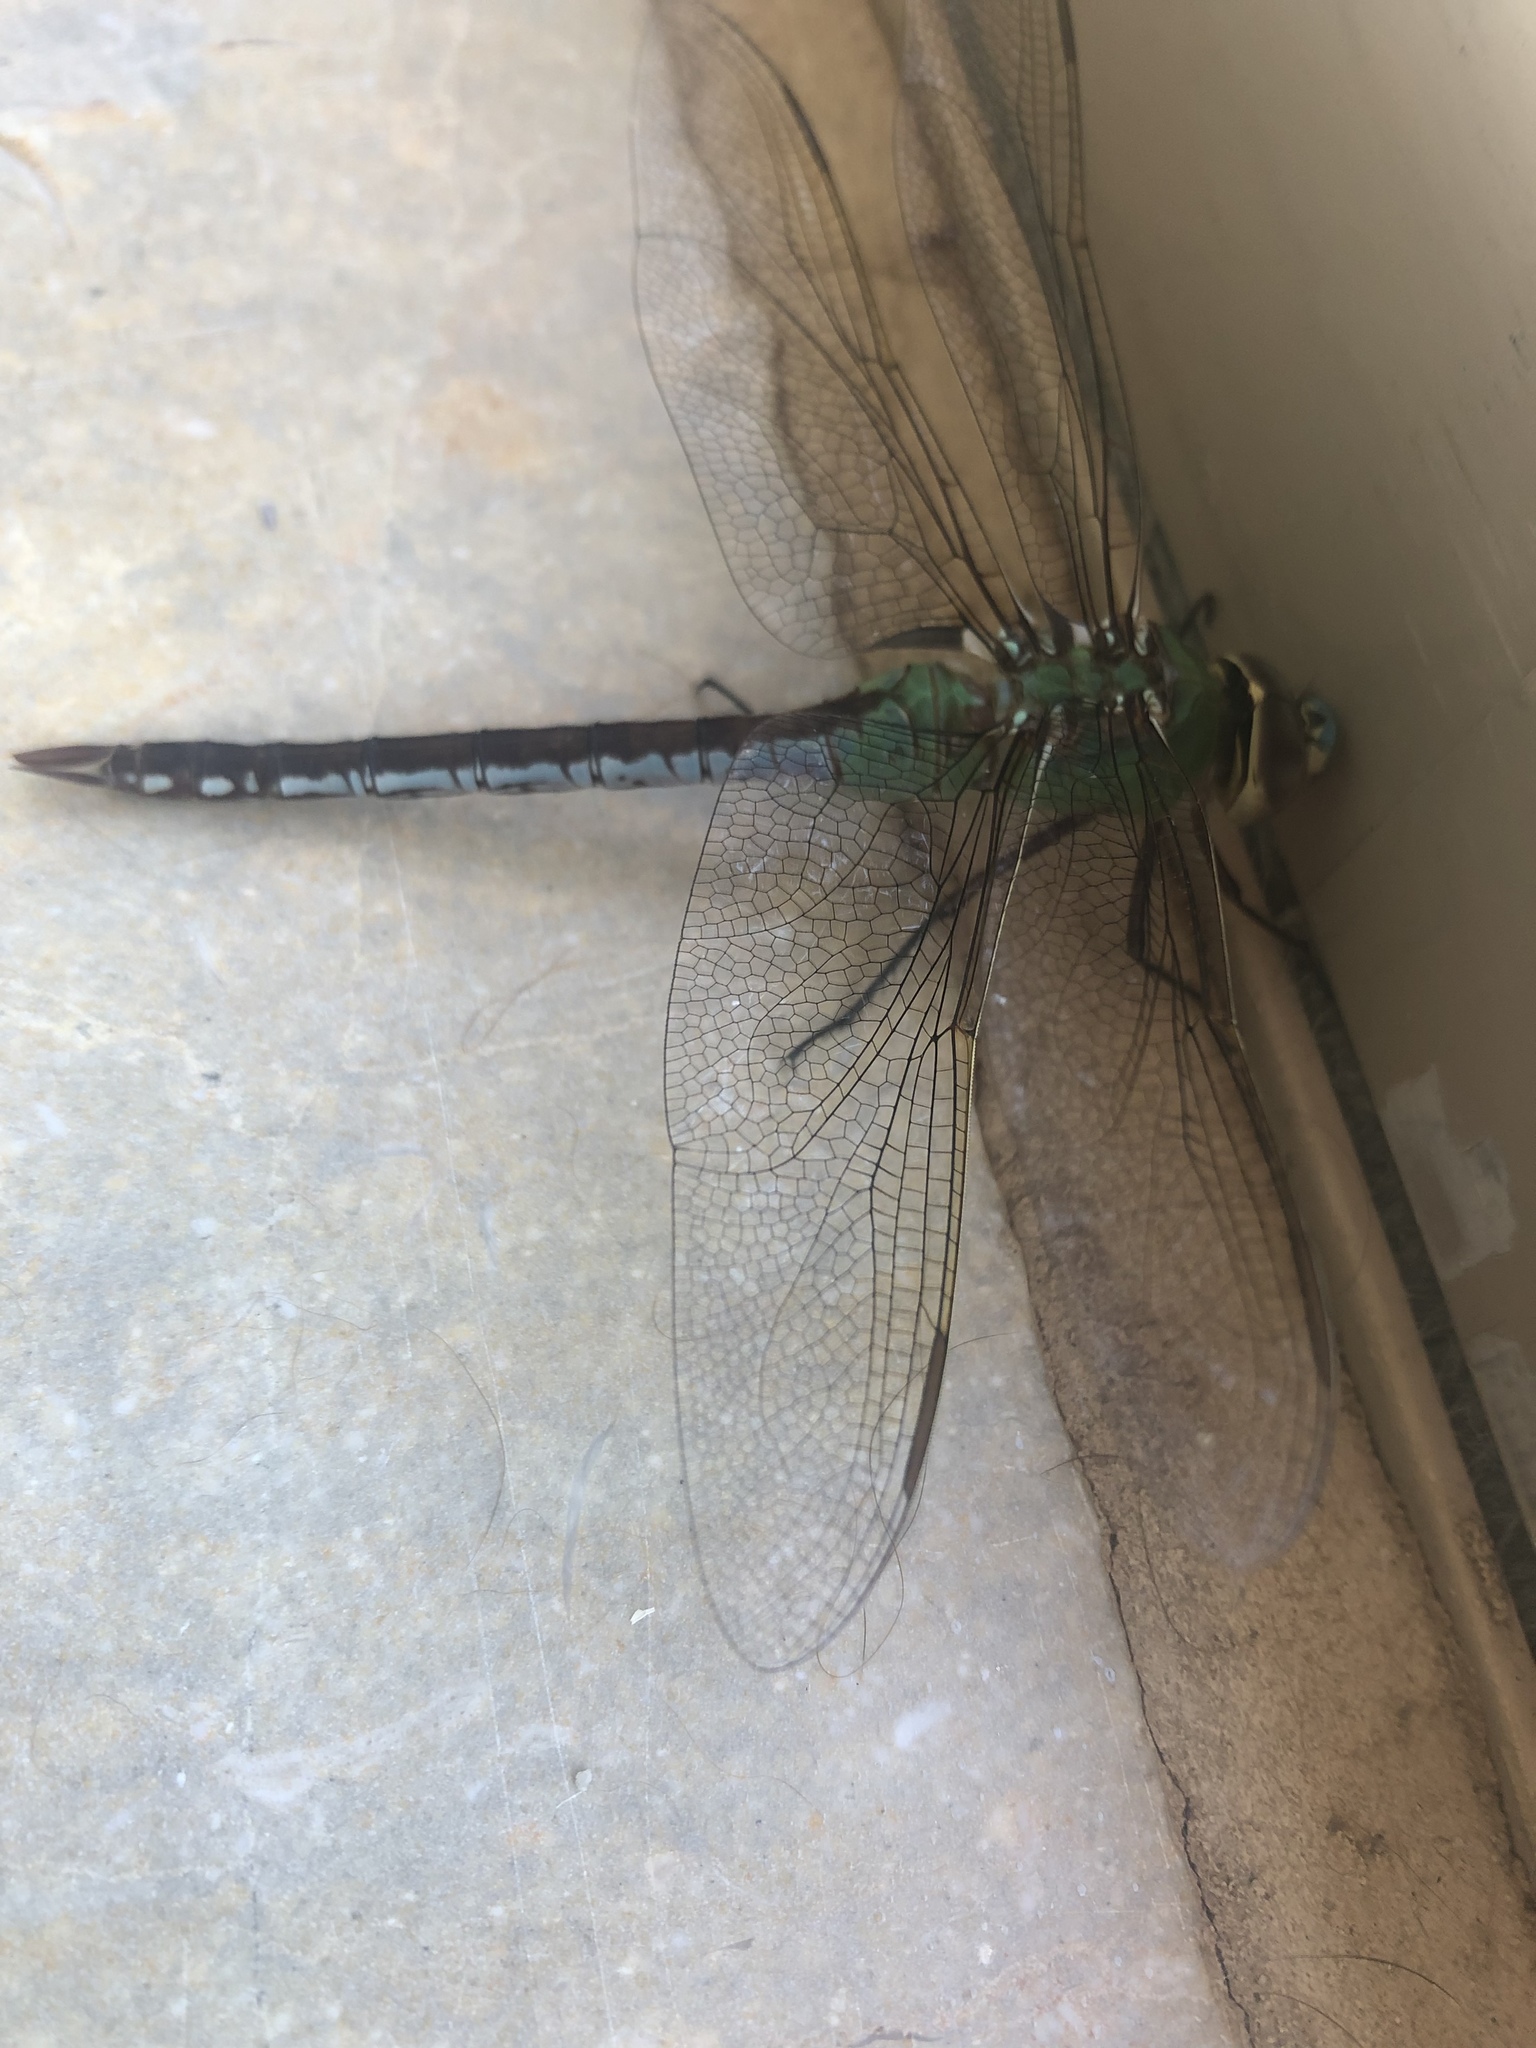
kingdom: Animalia
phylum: Arthropoda
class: Insecta
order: Odonata
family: Aeshnidae
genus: Anax
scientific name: Anax junius
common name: Common green darner
